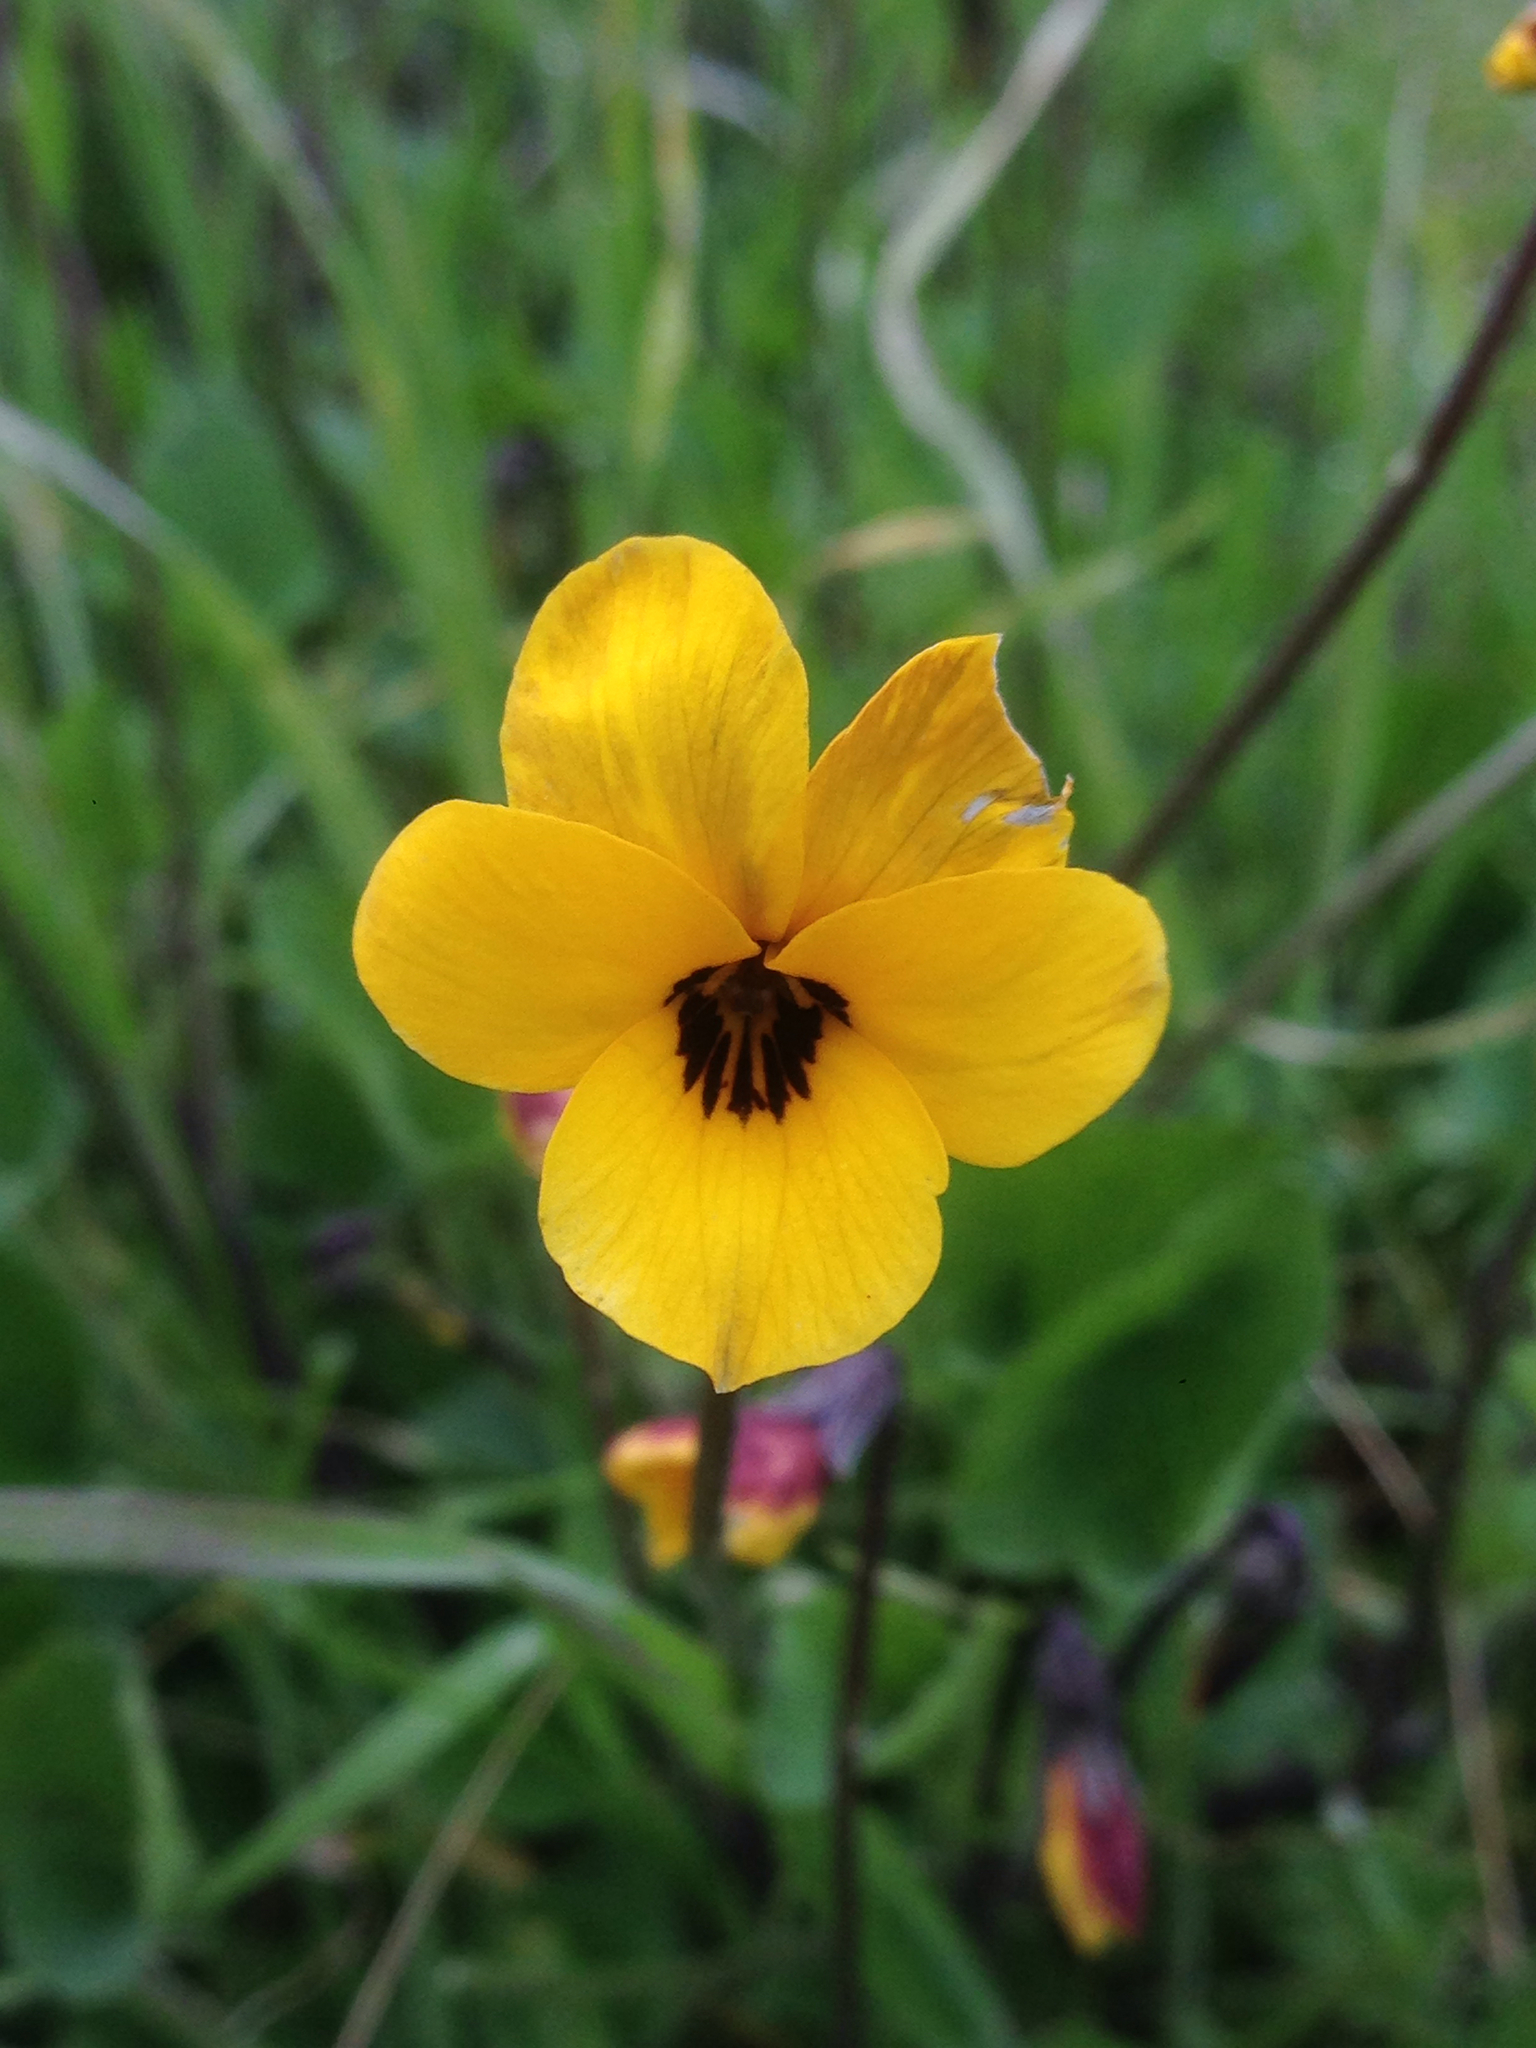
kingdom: Plantae
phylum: Tracheophyta
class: Magnoliopsida
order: Malpighiales
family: Violaceae
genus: Viola
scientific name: Viola pedunculata
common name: California golden violet
